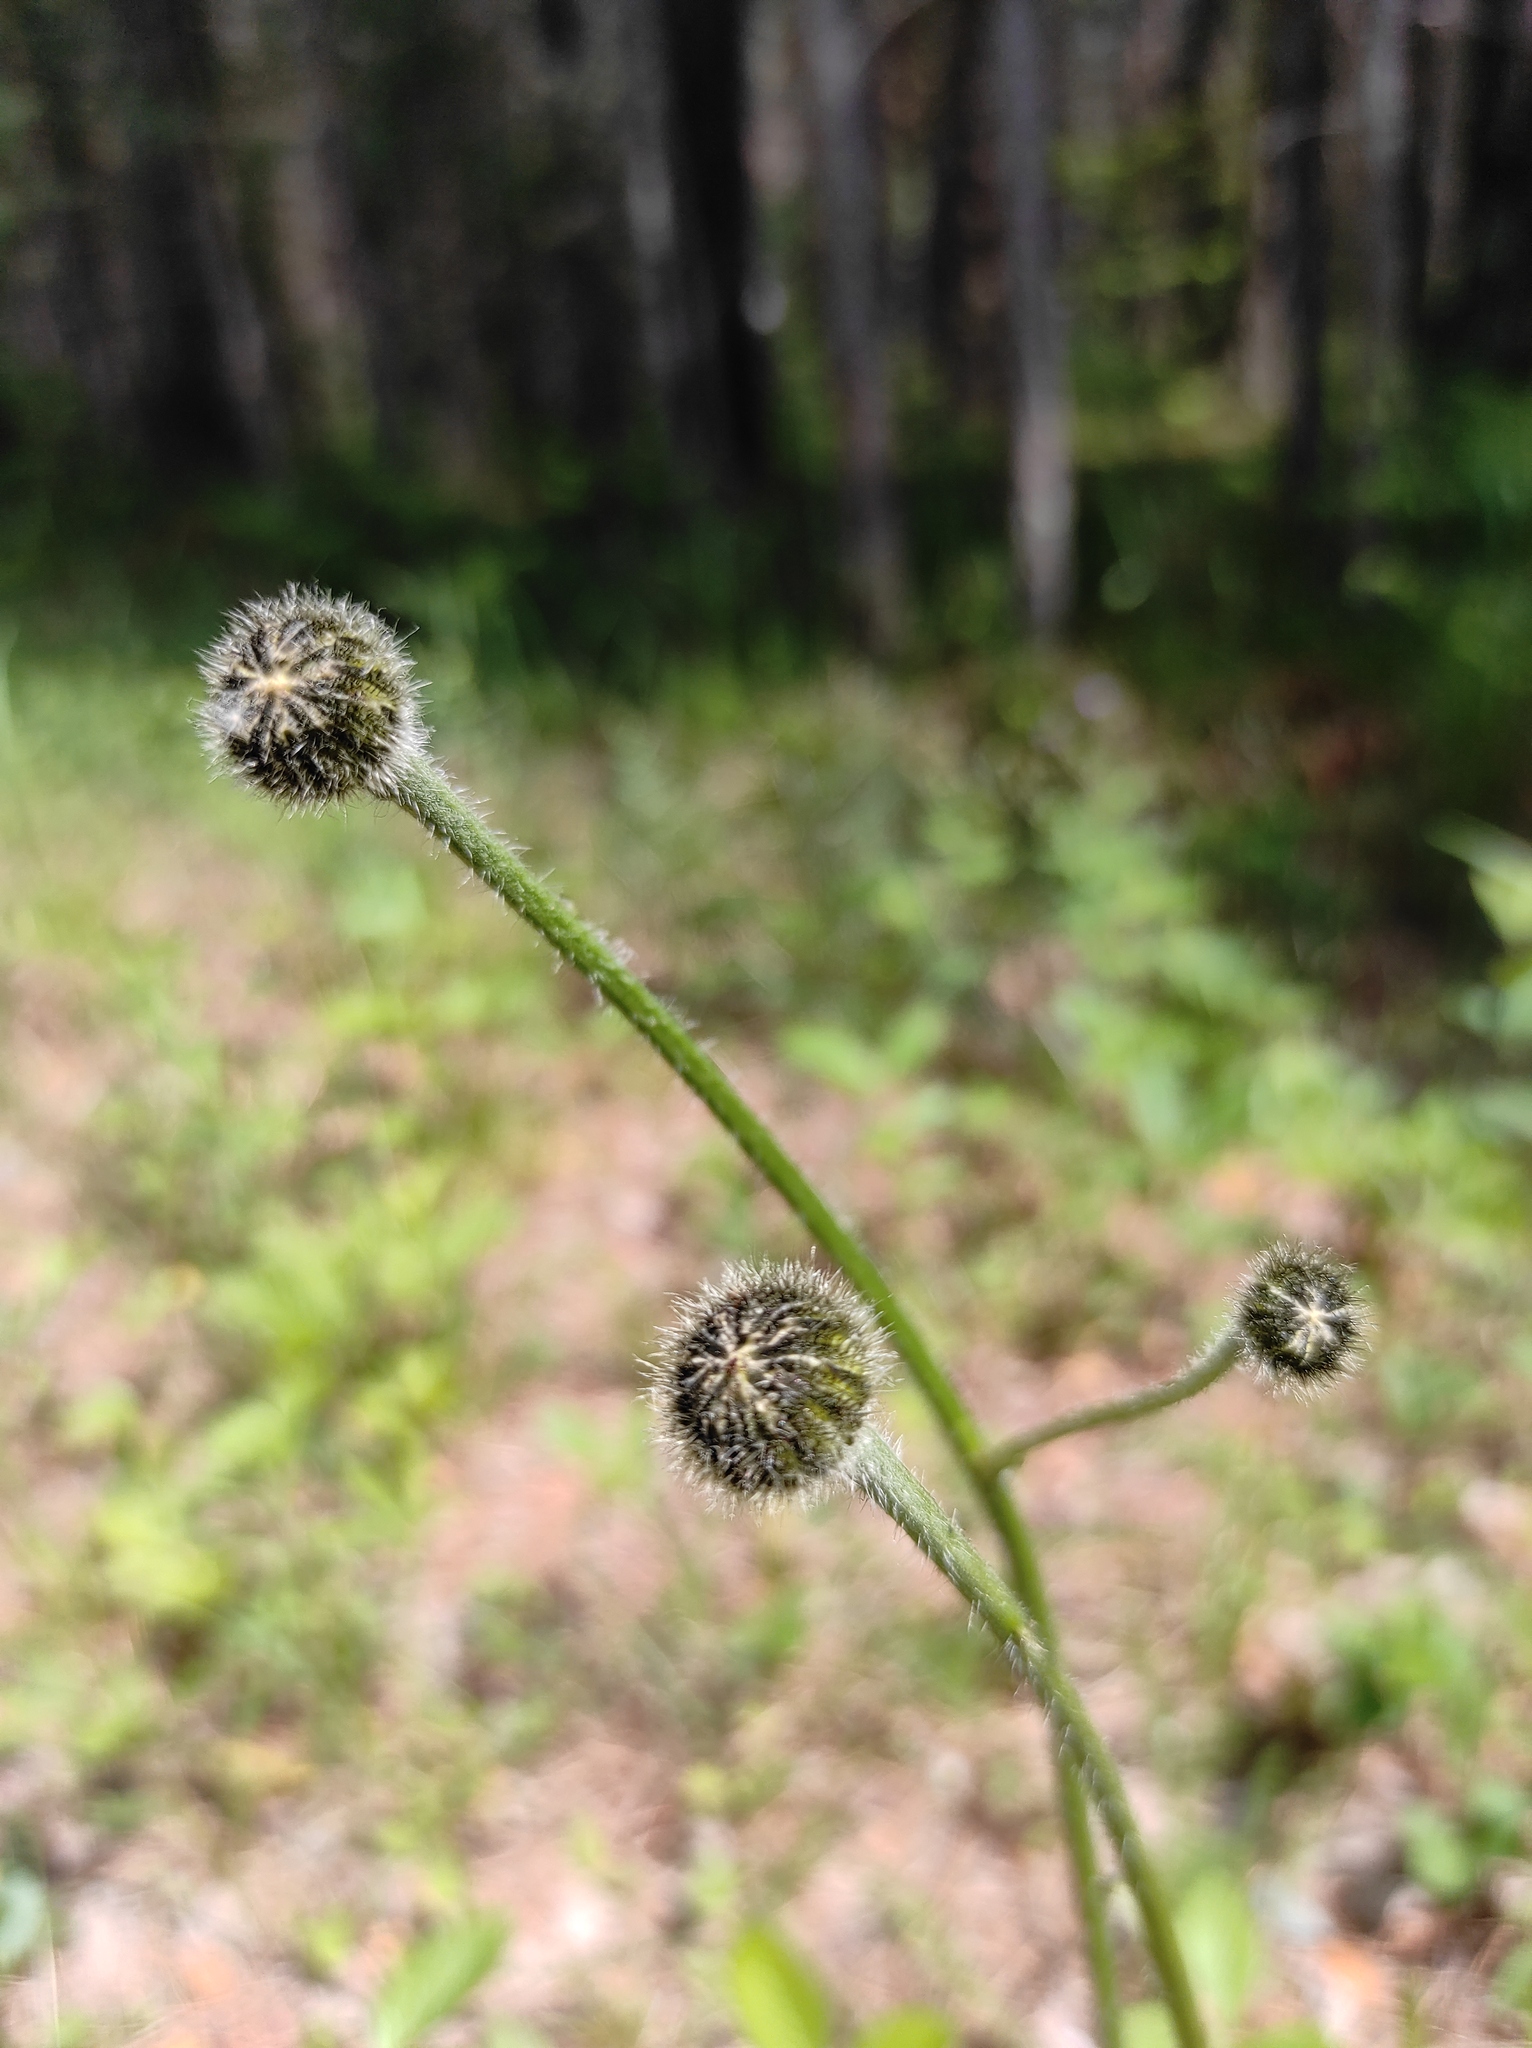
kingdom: Plantae
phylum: Tracheophyta
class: Magnoliopsida
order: Asterales
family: Asteraceae
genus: Trommsdorffia
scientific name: Trommsdorffia maculata
